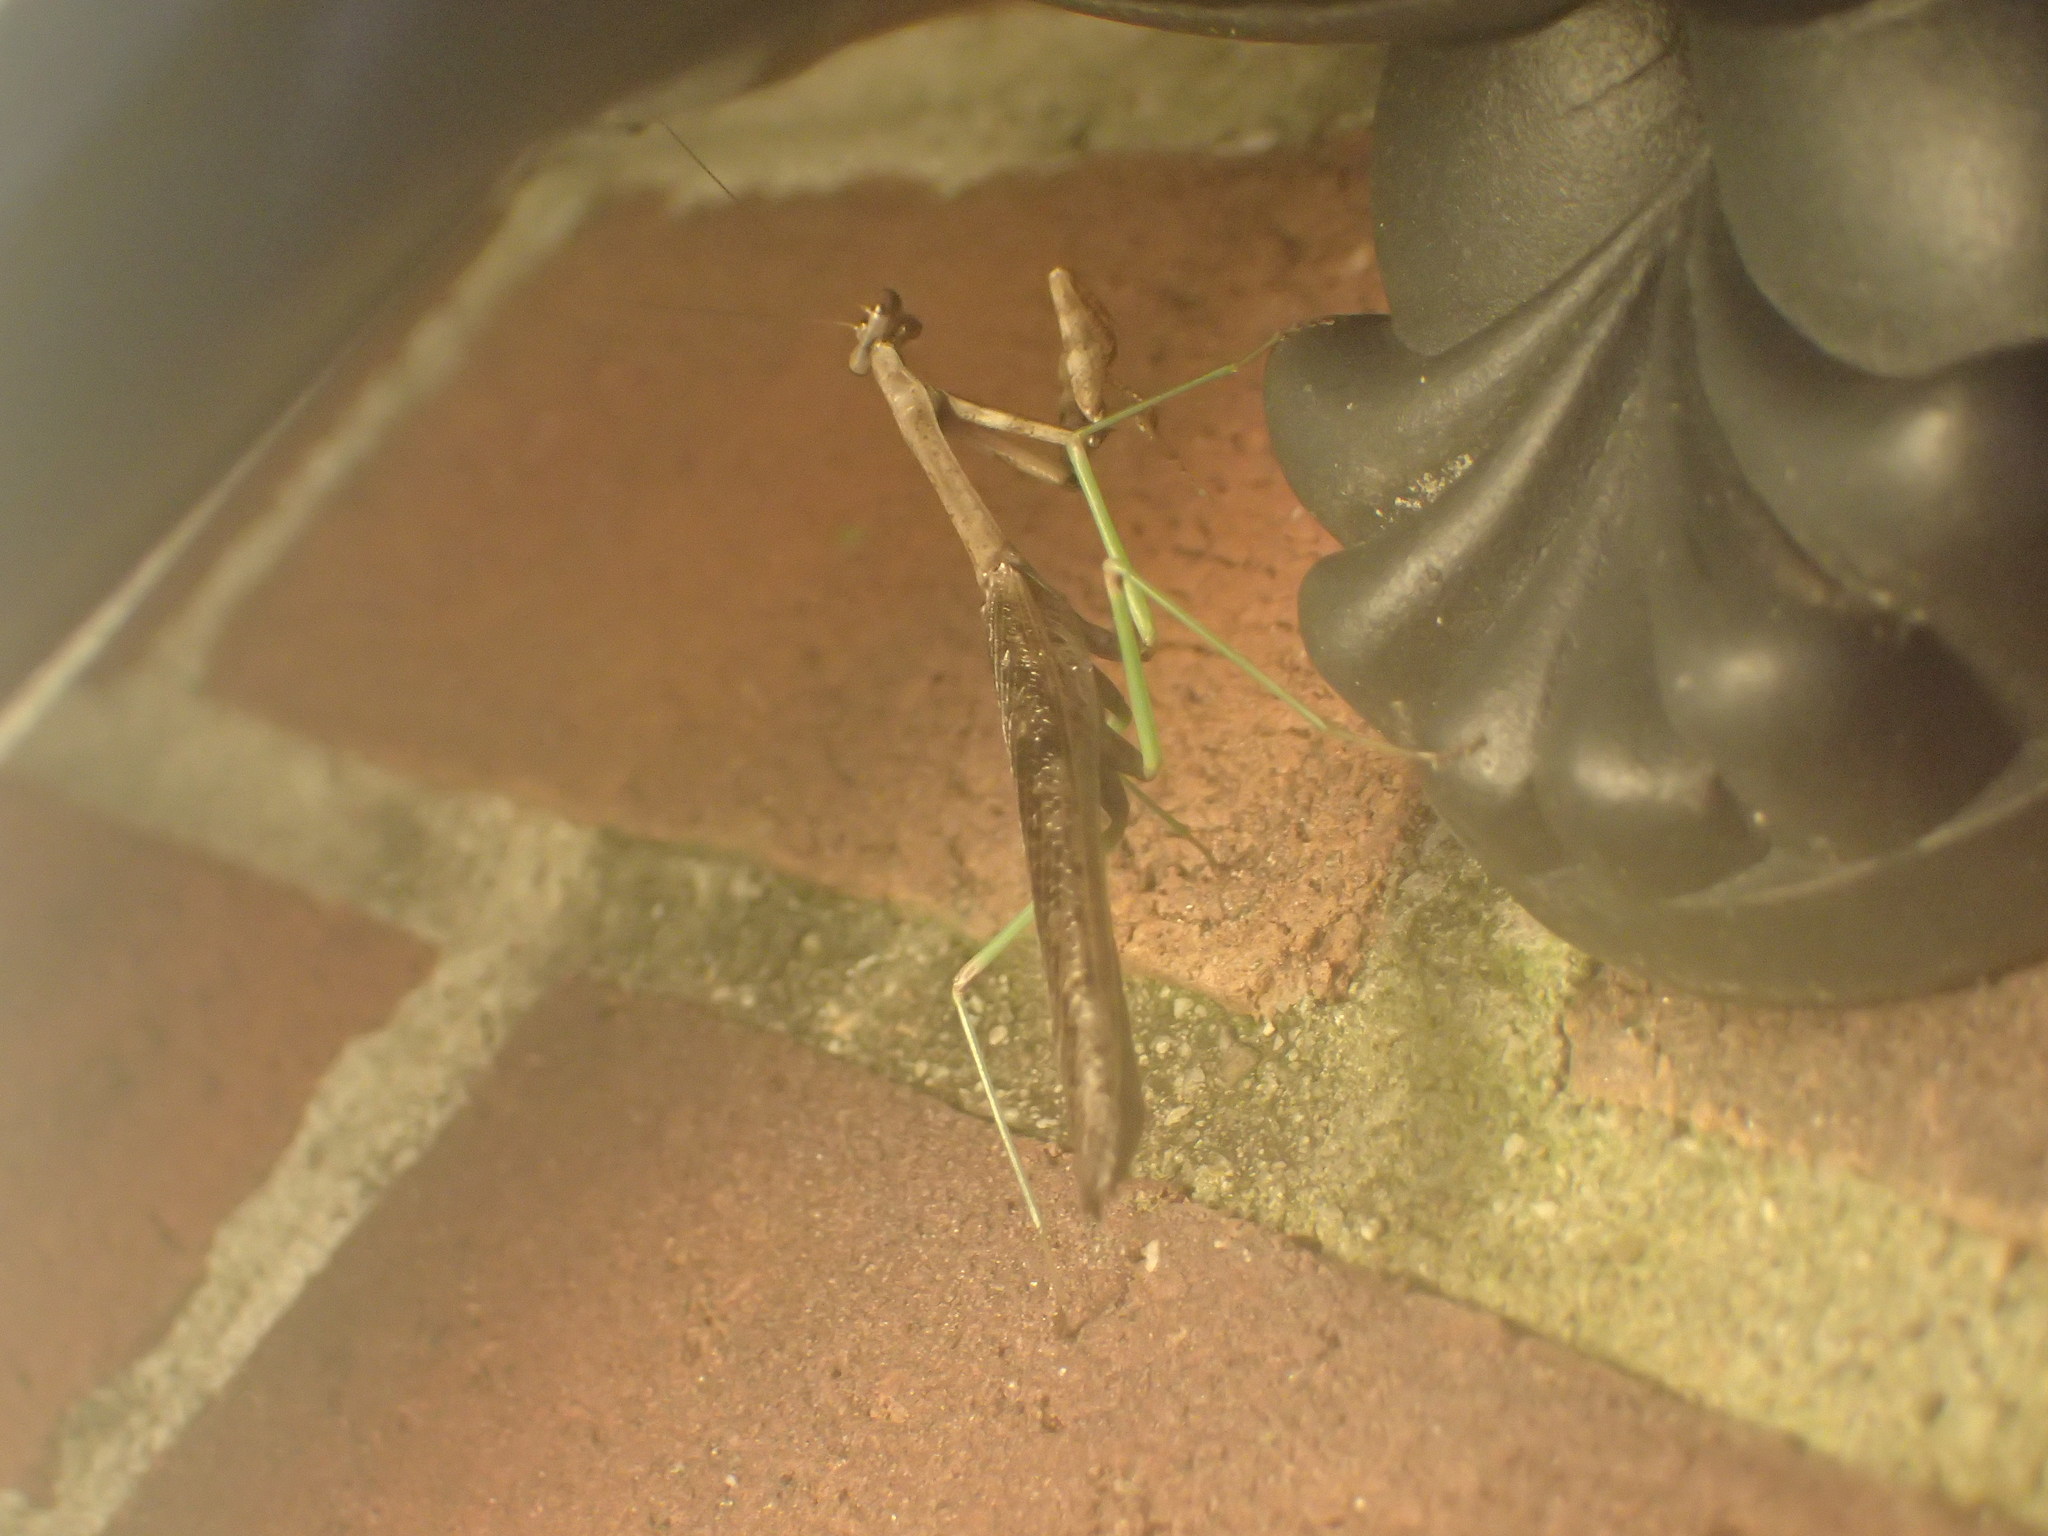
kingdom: Animalia
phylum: Arthropoda
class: Insecta
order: Mantodea
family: Mantidae
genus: Stagmomantis
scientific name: Stagmomantis carolina
